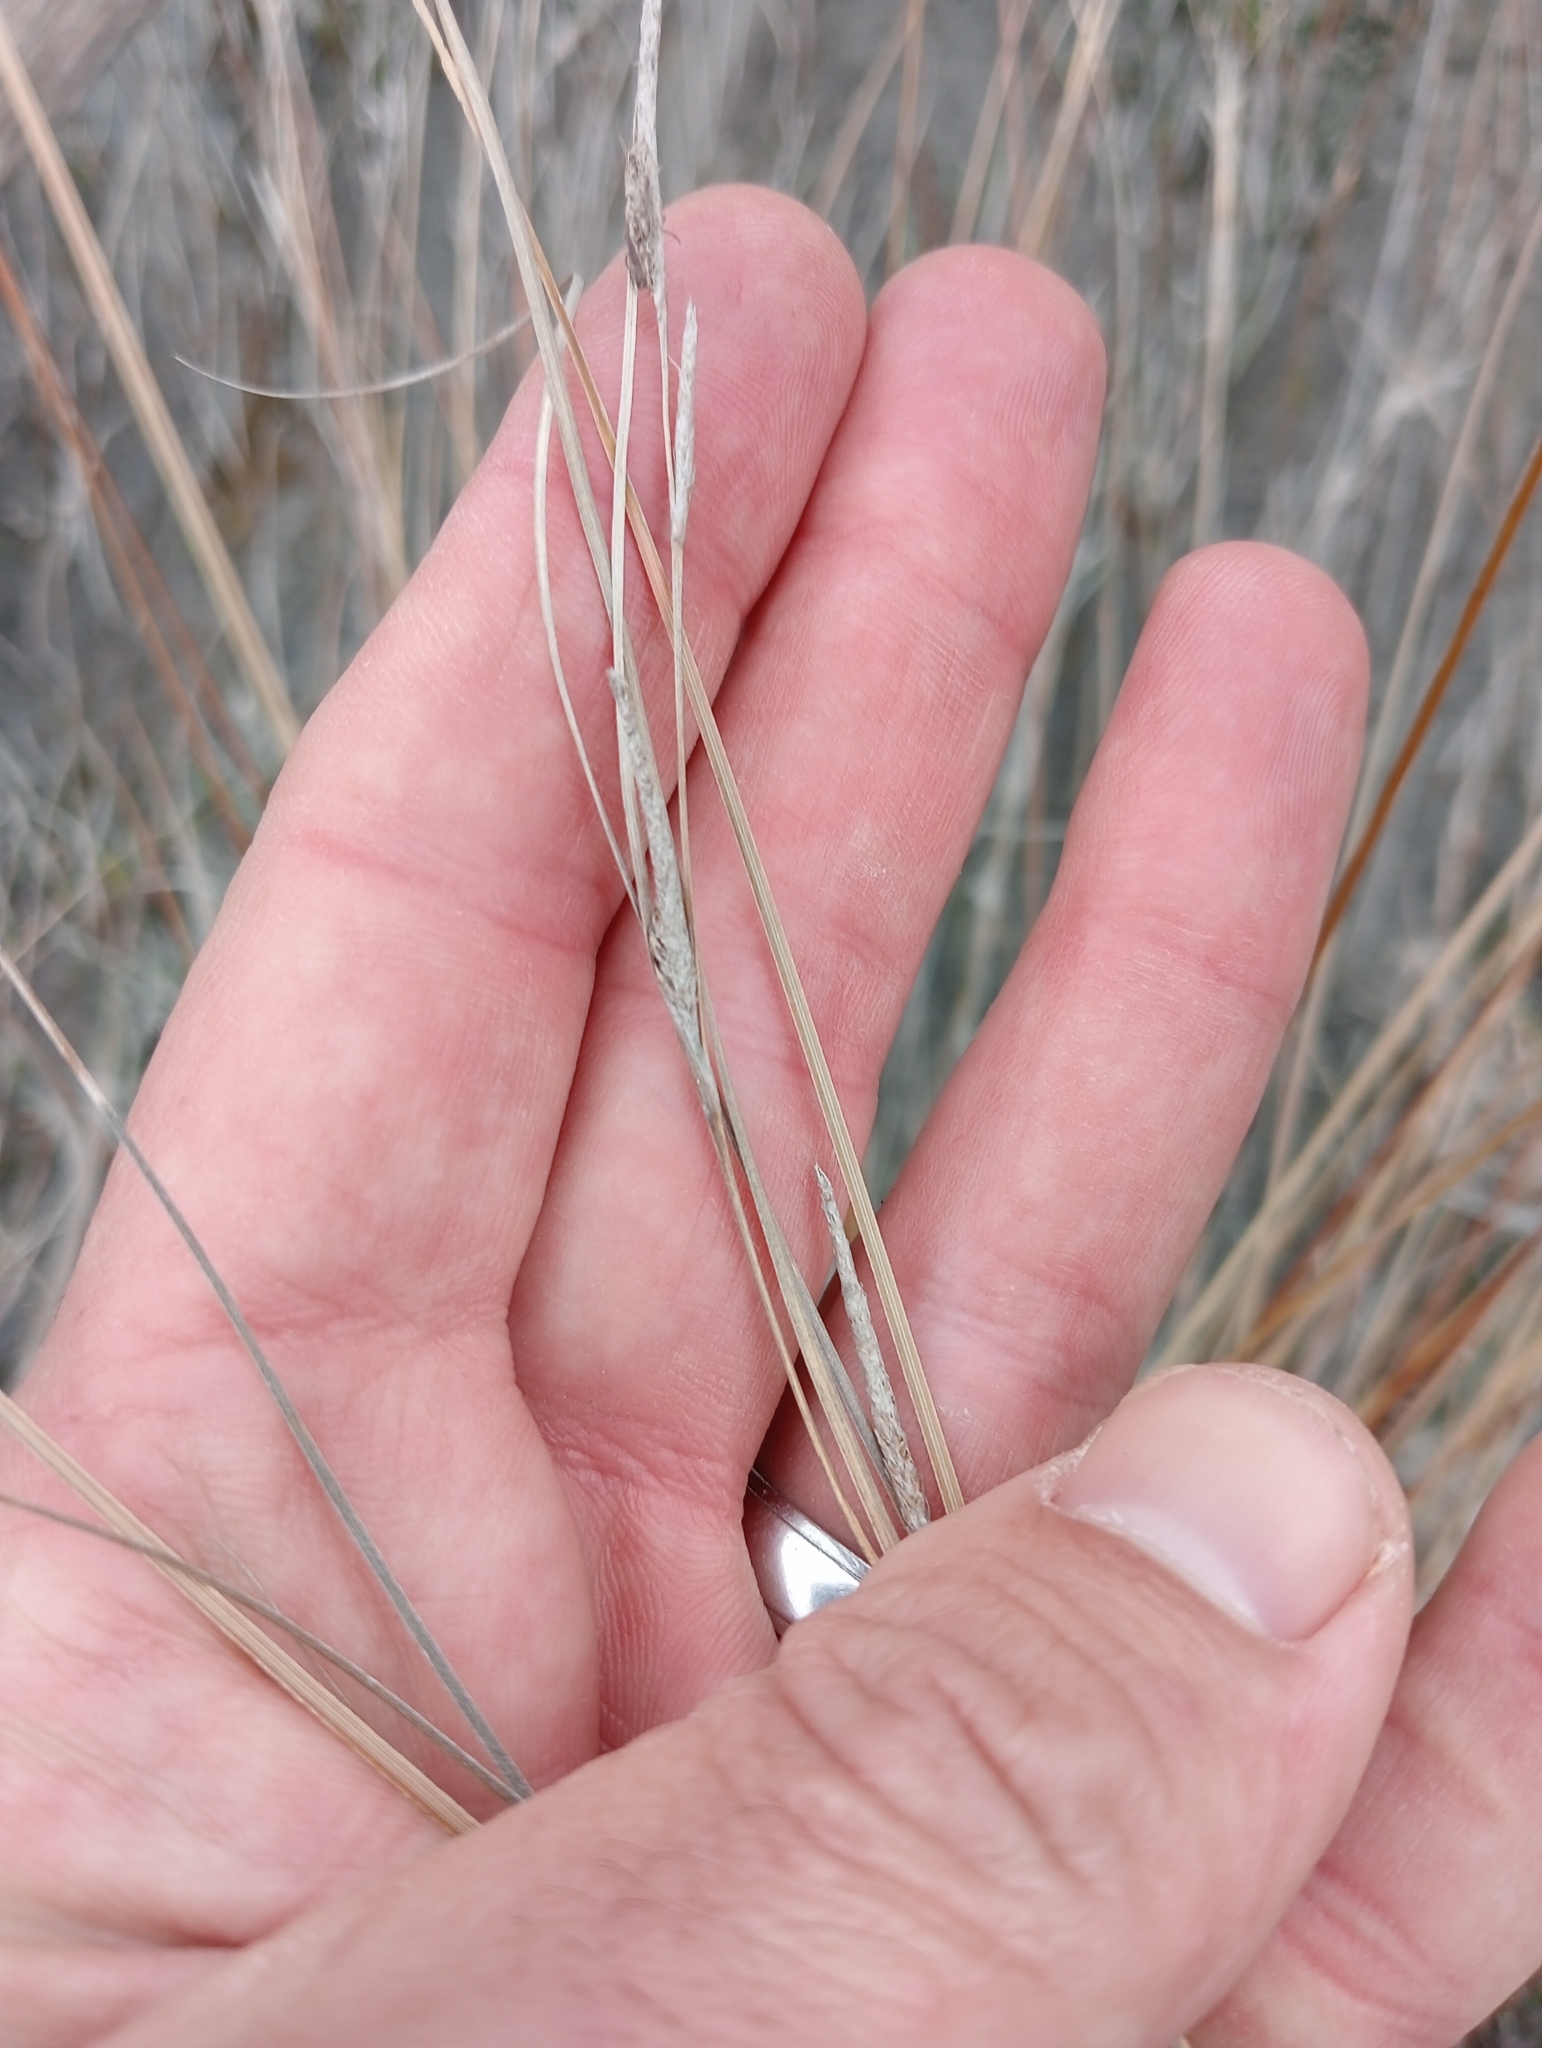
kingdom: Plantae
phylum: Tracheophyta
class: Liliopsida
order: Poales
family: Cyperaceae
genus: Carex
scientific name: Carex buchananii
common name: Leatherleaf sedge
